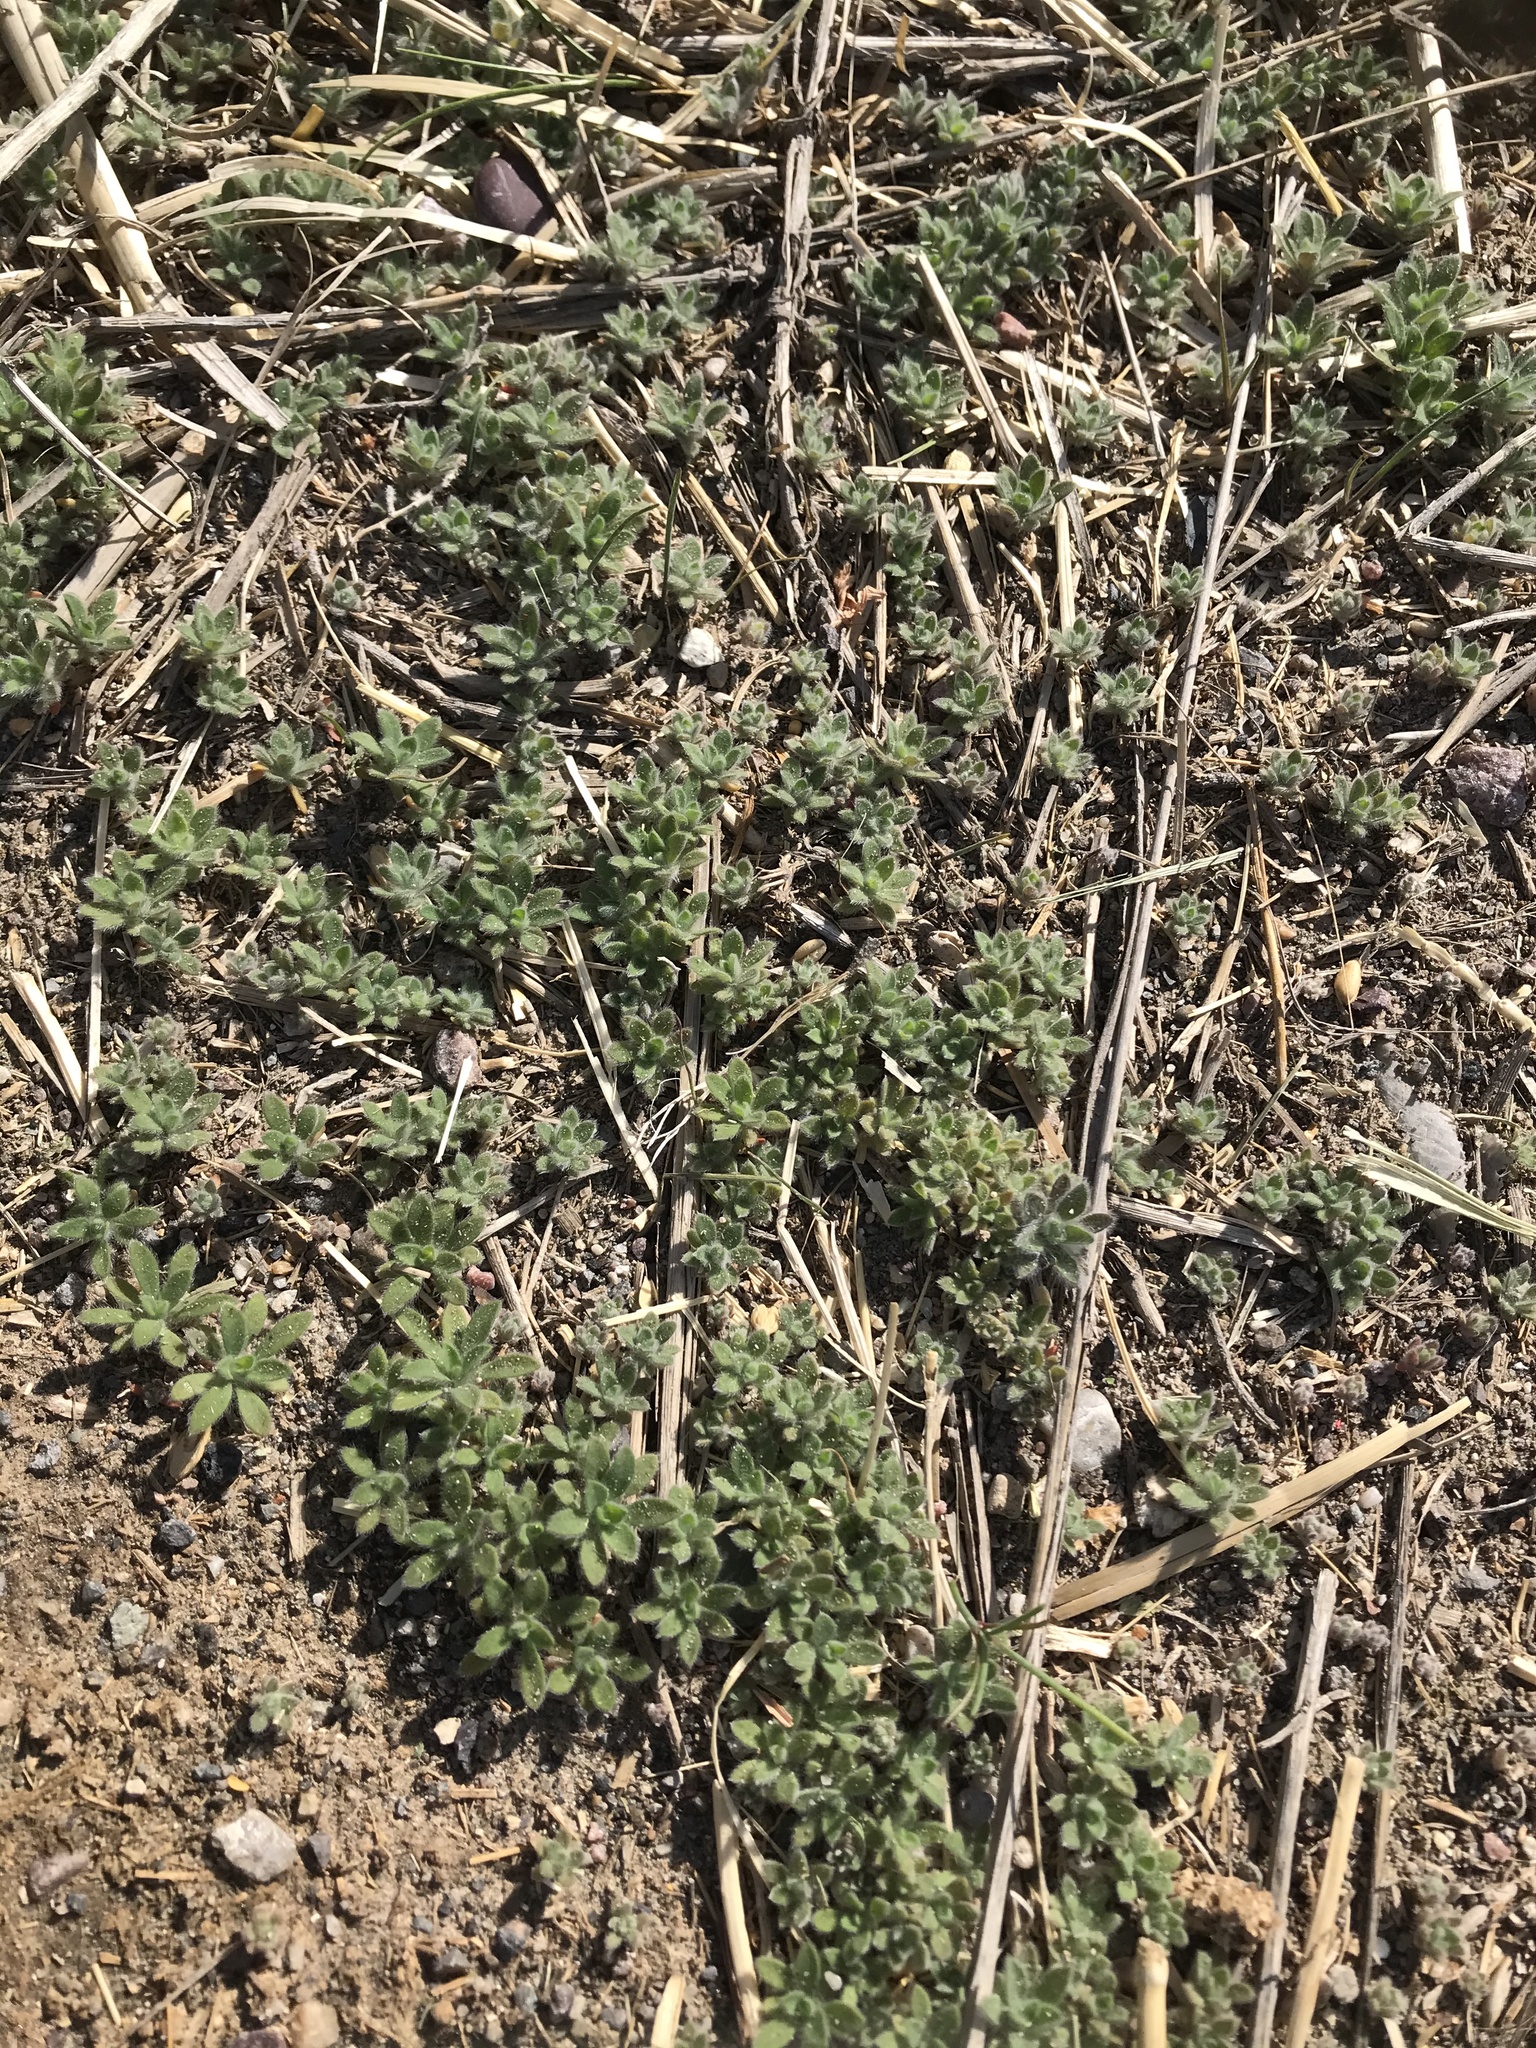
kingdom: Plantae
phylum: Tracheophyta
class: Magnoliopsida
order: Caryophyllales
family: Amaranthaceae
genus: Bassia
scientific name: Bassia scoparia
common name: Belvedere
